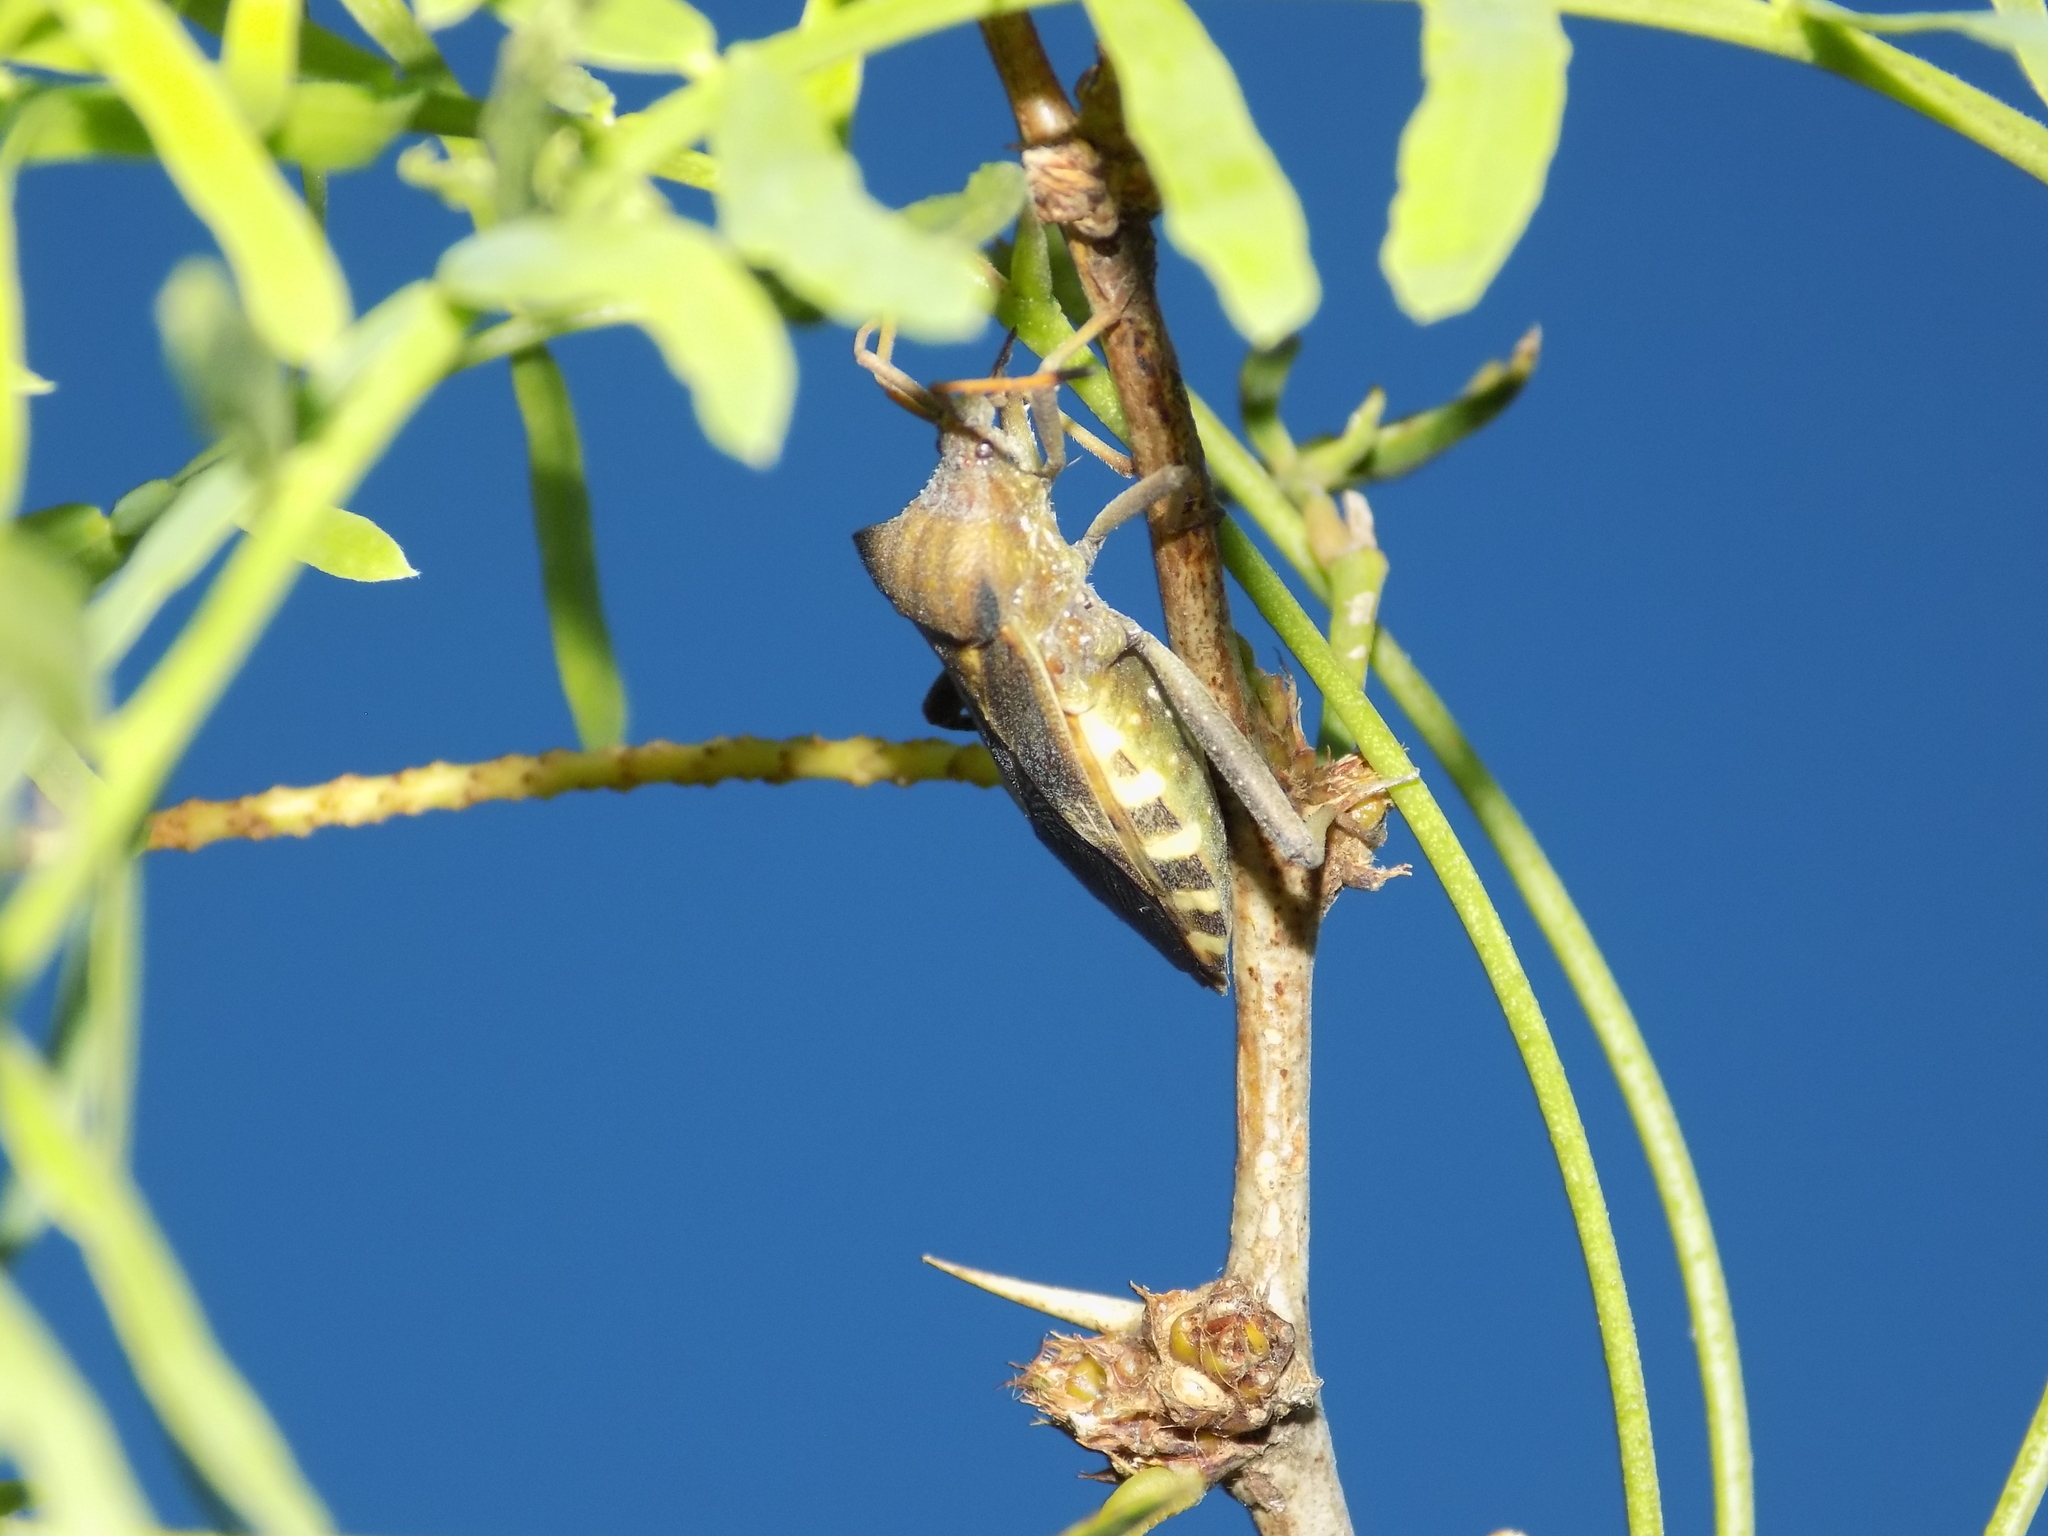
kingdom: Animalia
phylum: Arthropoda
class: Insecta
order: Hemiptera
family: Coreidae
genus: Mozena
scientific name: Mozena obtusa
